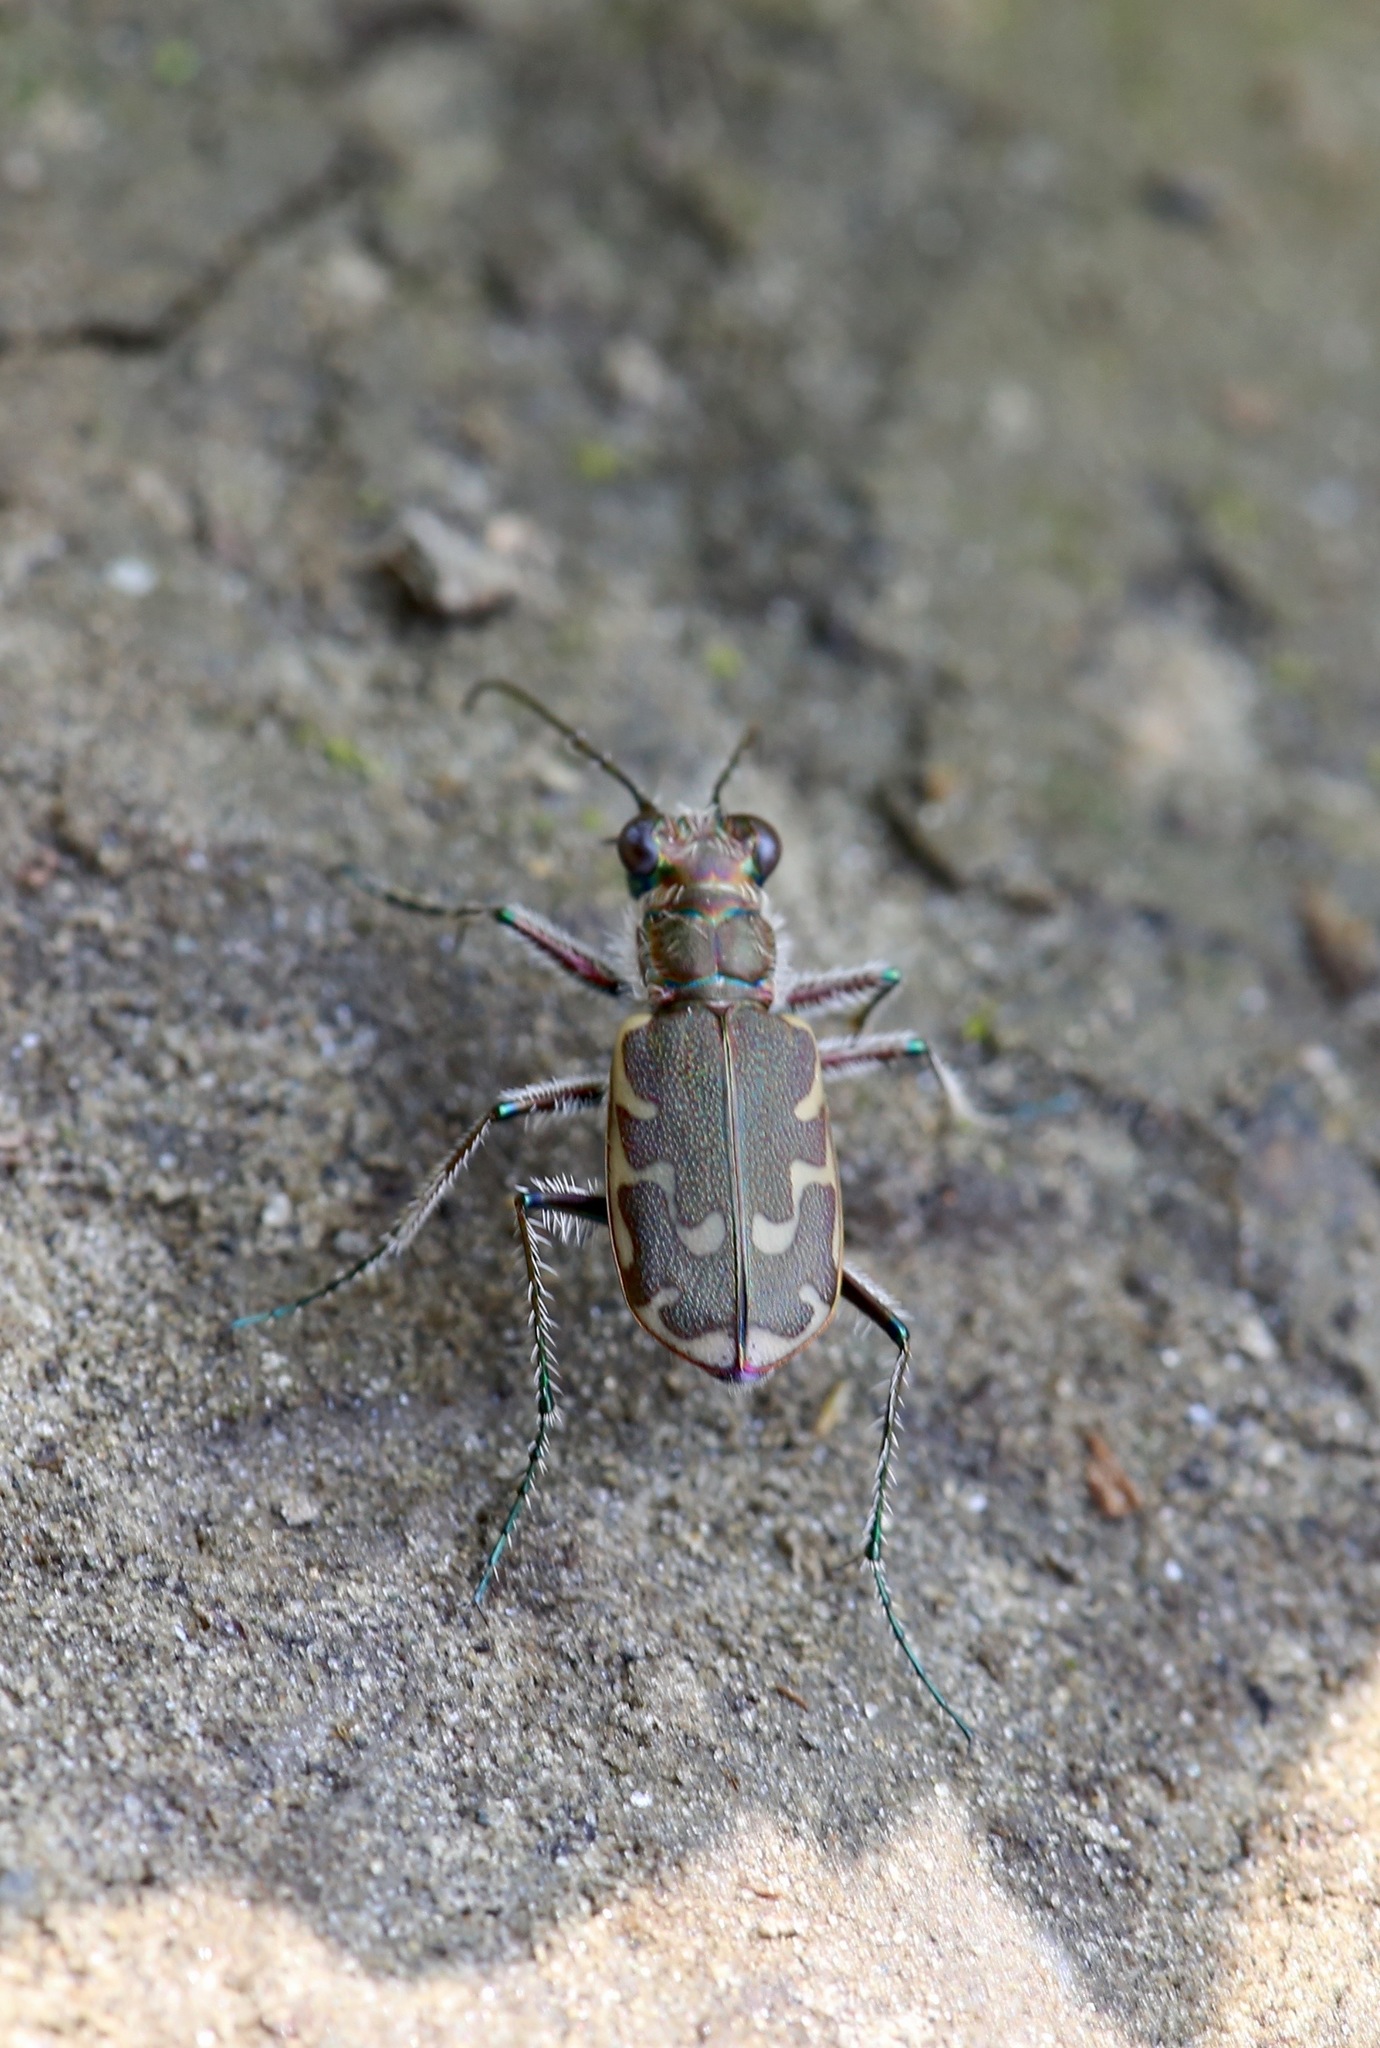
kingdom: Animalia
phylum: Arthropoda
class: Insecta
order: Coleoptera
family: Carabidae
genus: Cicindela
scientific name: Cicindela repanda
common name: Bronzed tiger beetle
